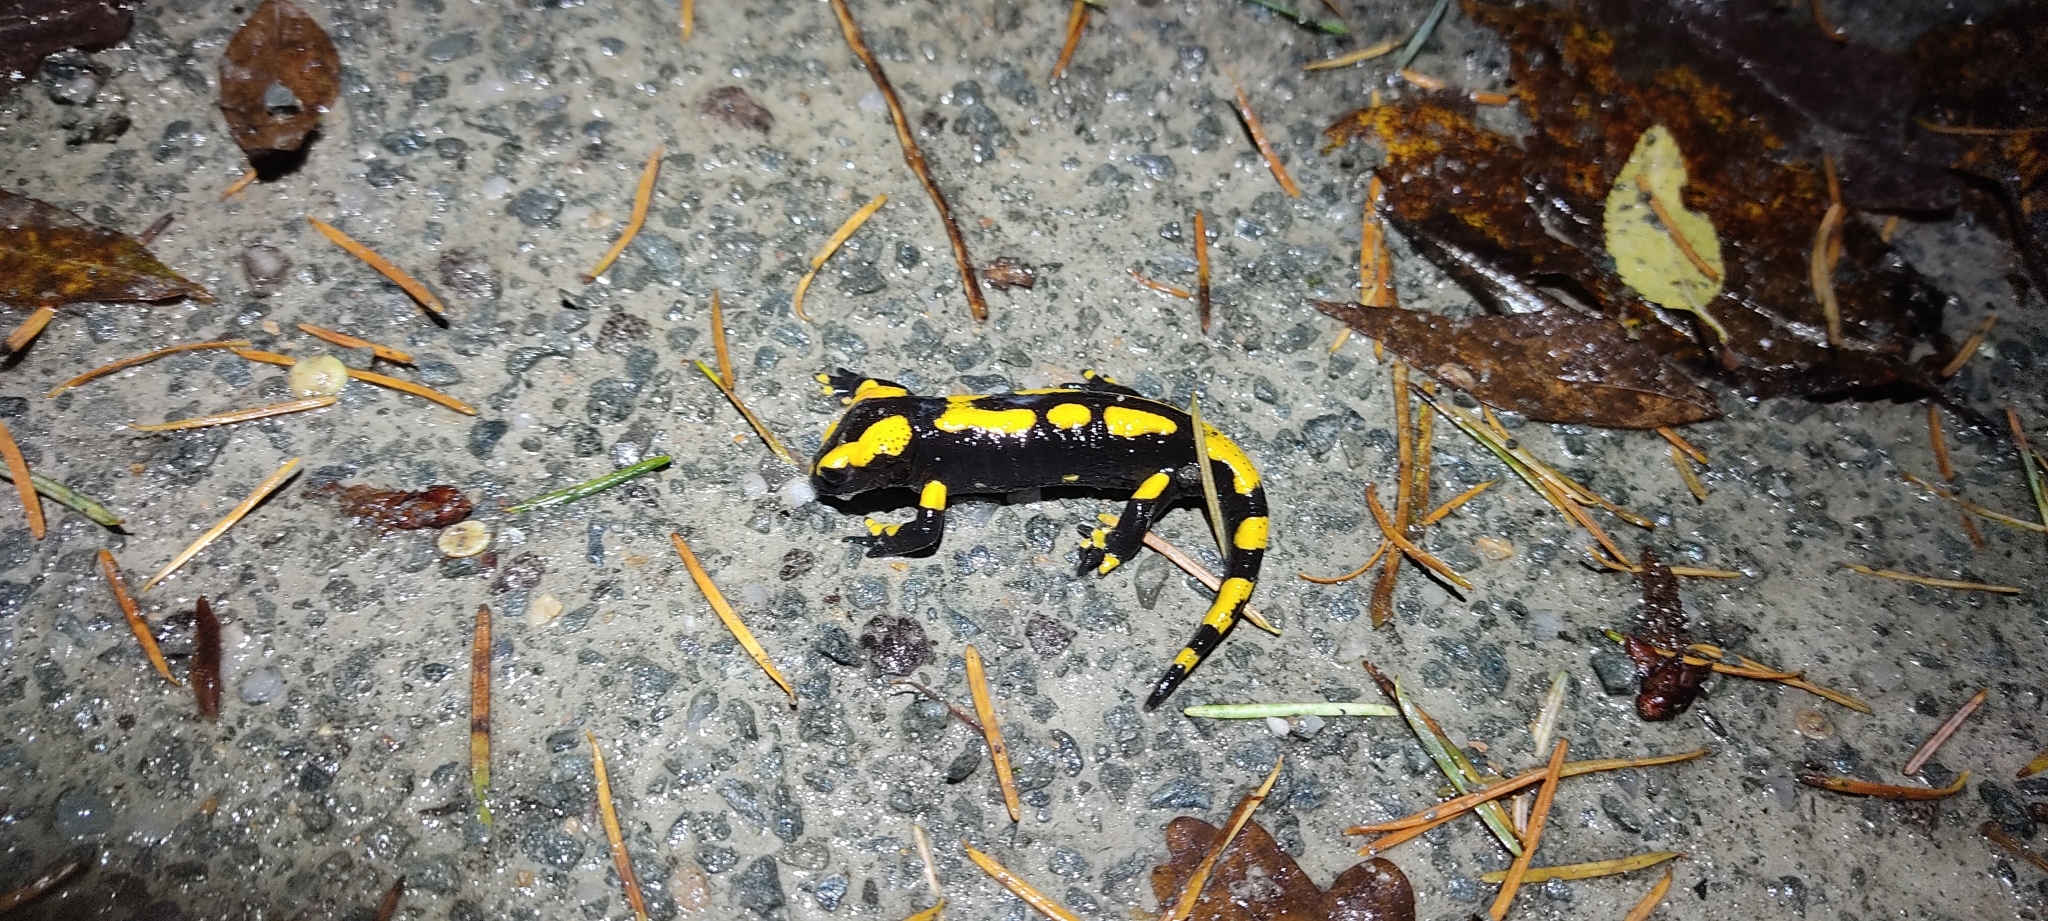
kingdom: Animalia
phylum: Chordata
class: Amphibia
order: Caudata
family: Salamandridae
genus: Salamandra
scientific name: Salamandra salamandra
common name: Fire salamander
